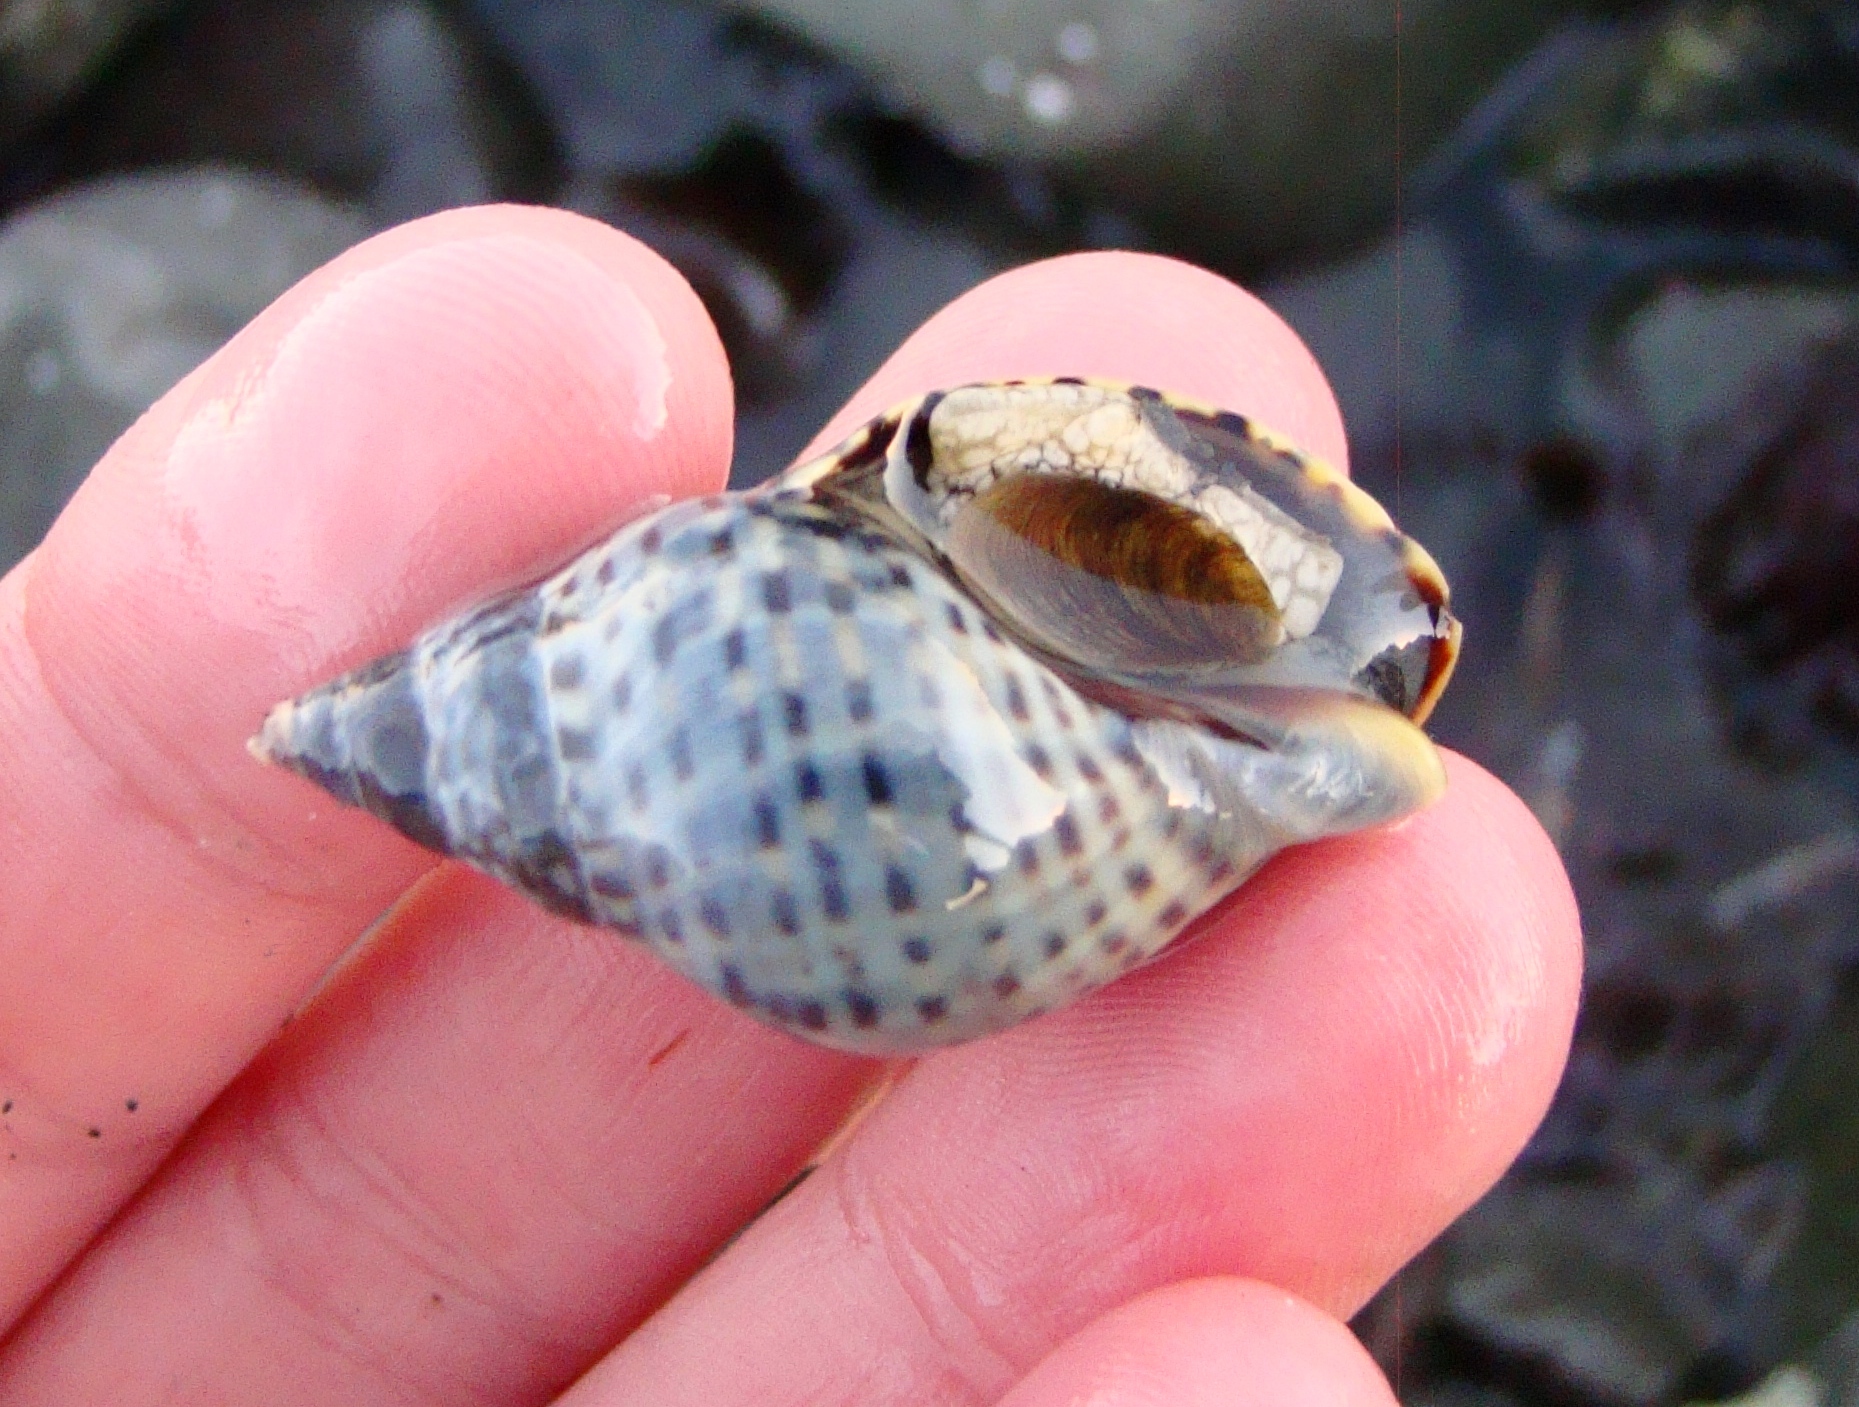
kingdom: Animalia
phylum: Mollusca
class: Gastropoda
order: Neogastropoda
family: Cominellidae
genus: Cominella
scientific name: Cominella maculosa
